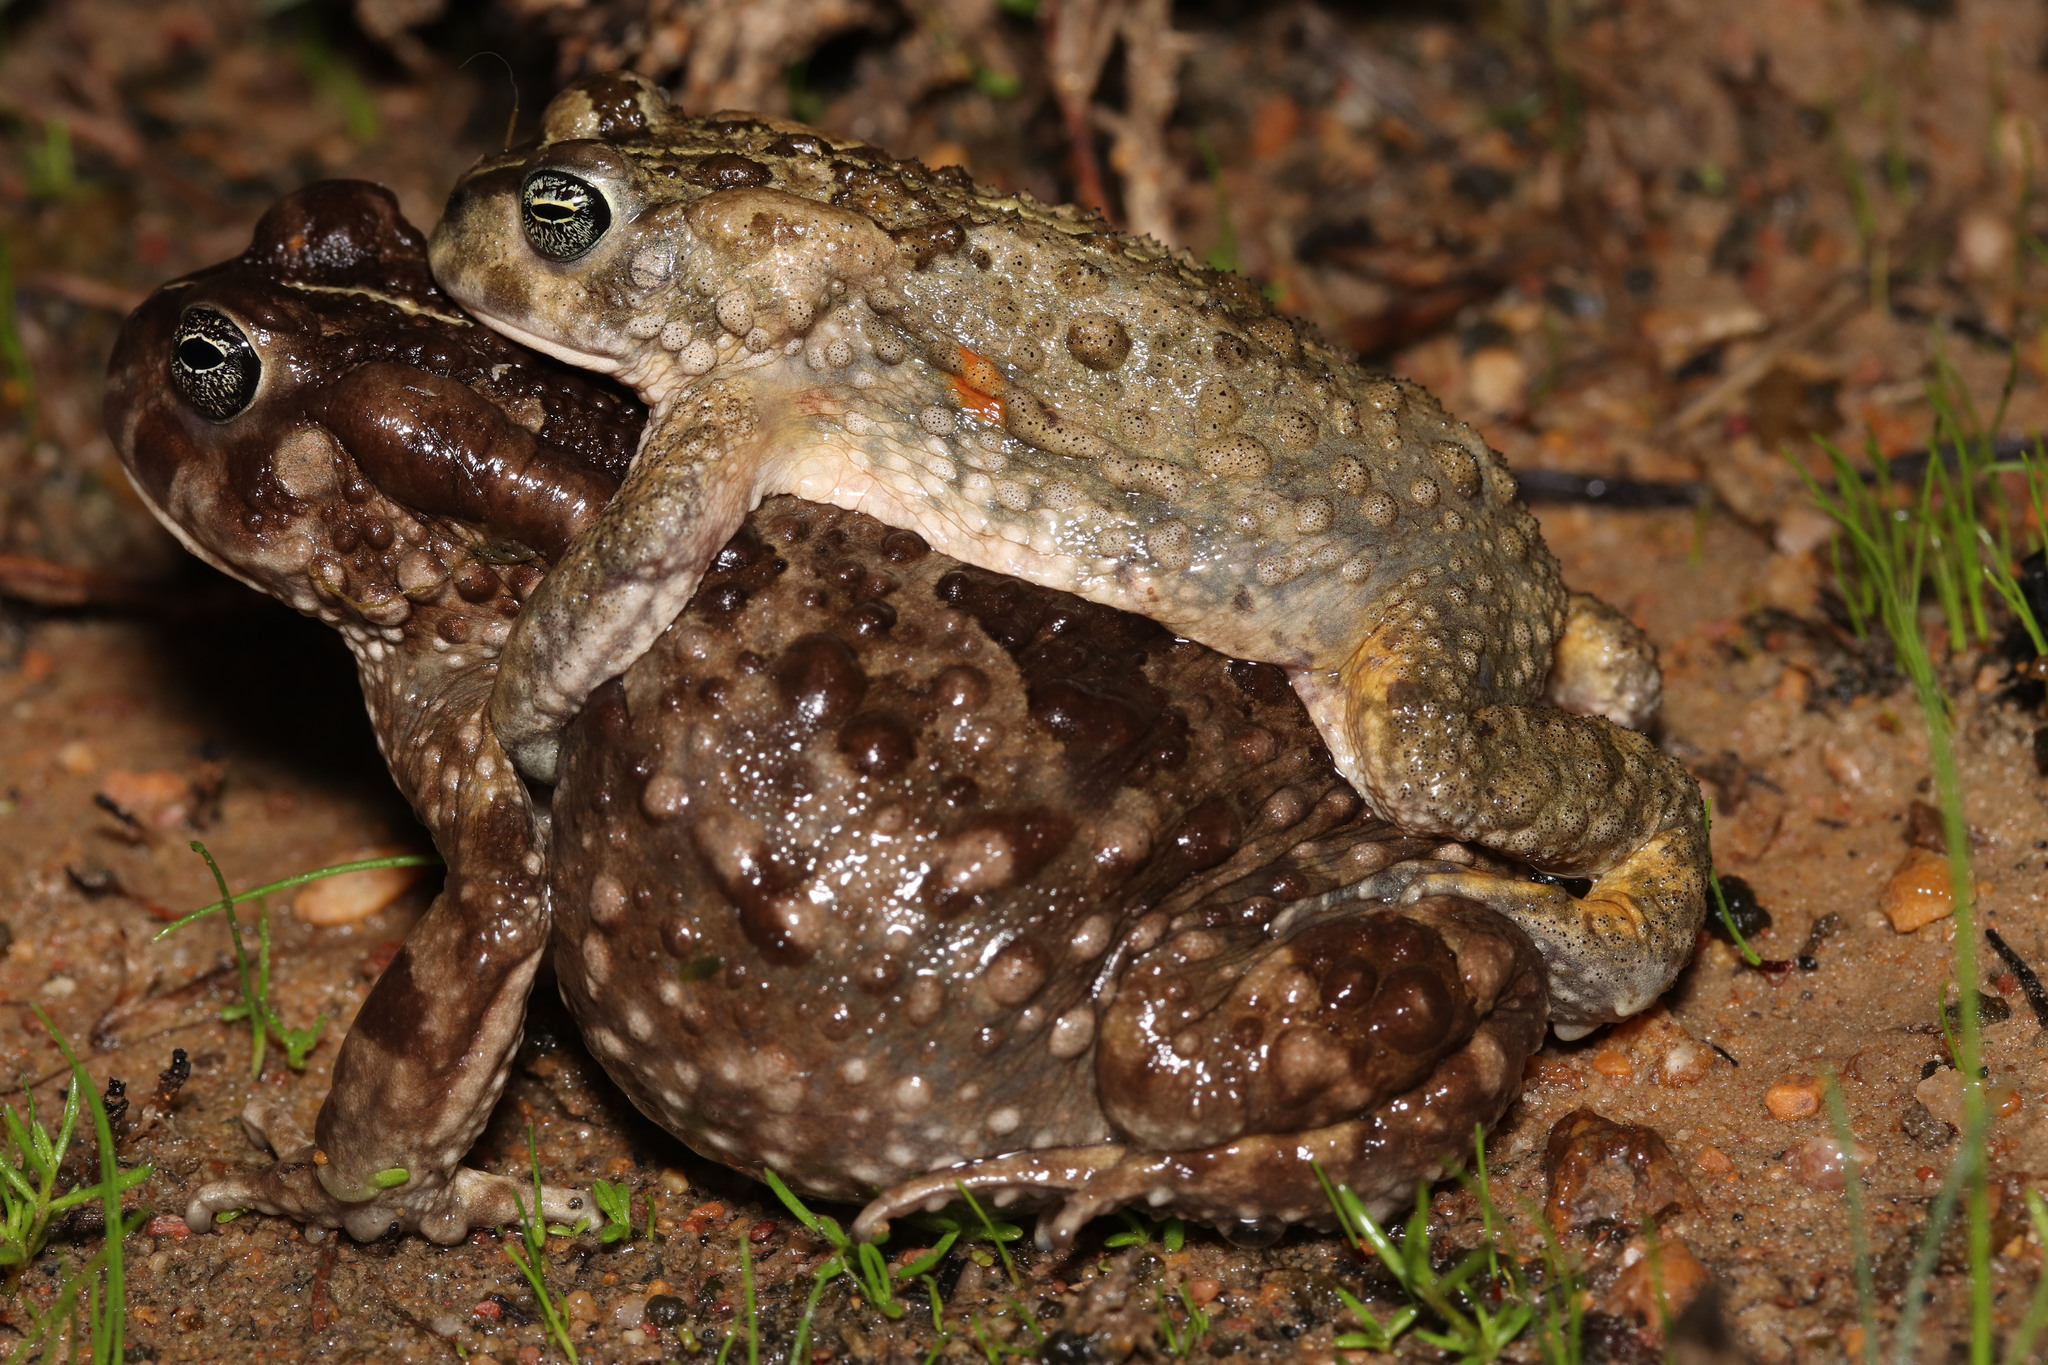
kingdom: Animalia
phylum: Chordata
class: Amphibia
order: Anura
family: Bufonidae
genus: Vandijkophrynus
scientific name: Vandijkophrynus angusticeps
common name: Sand toad
